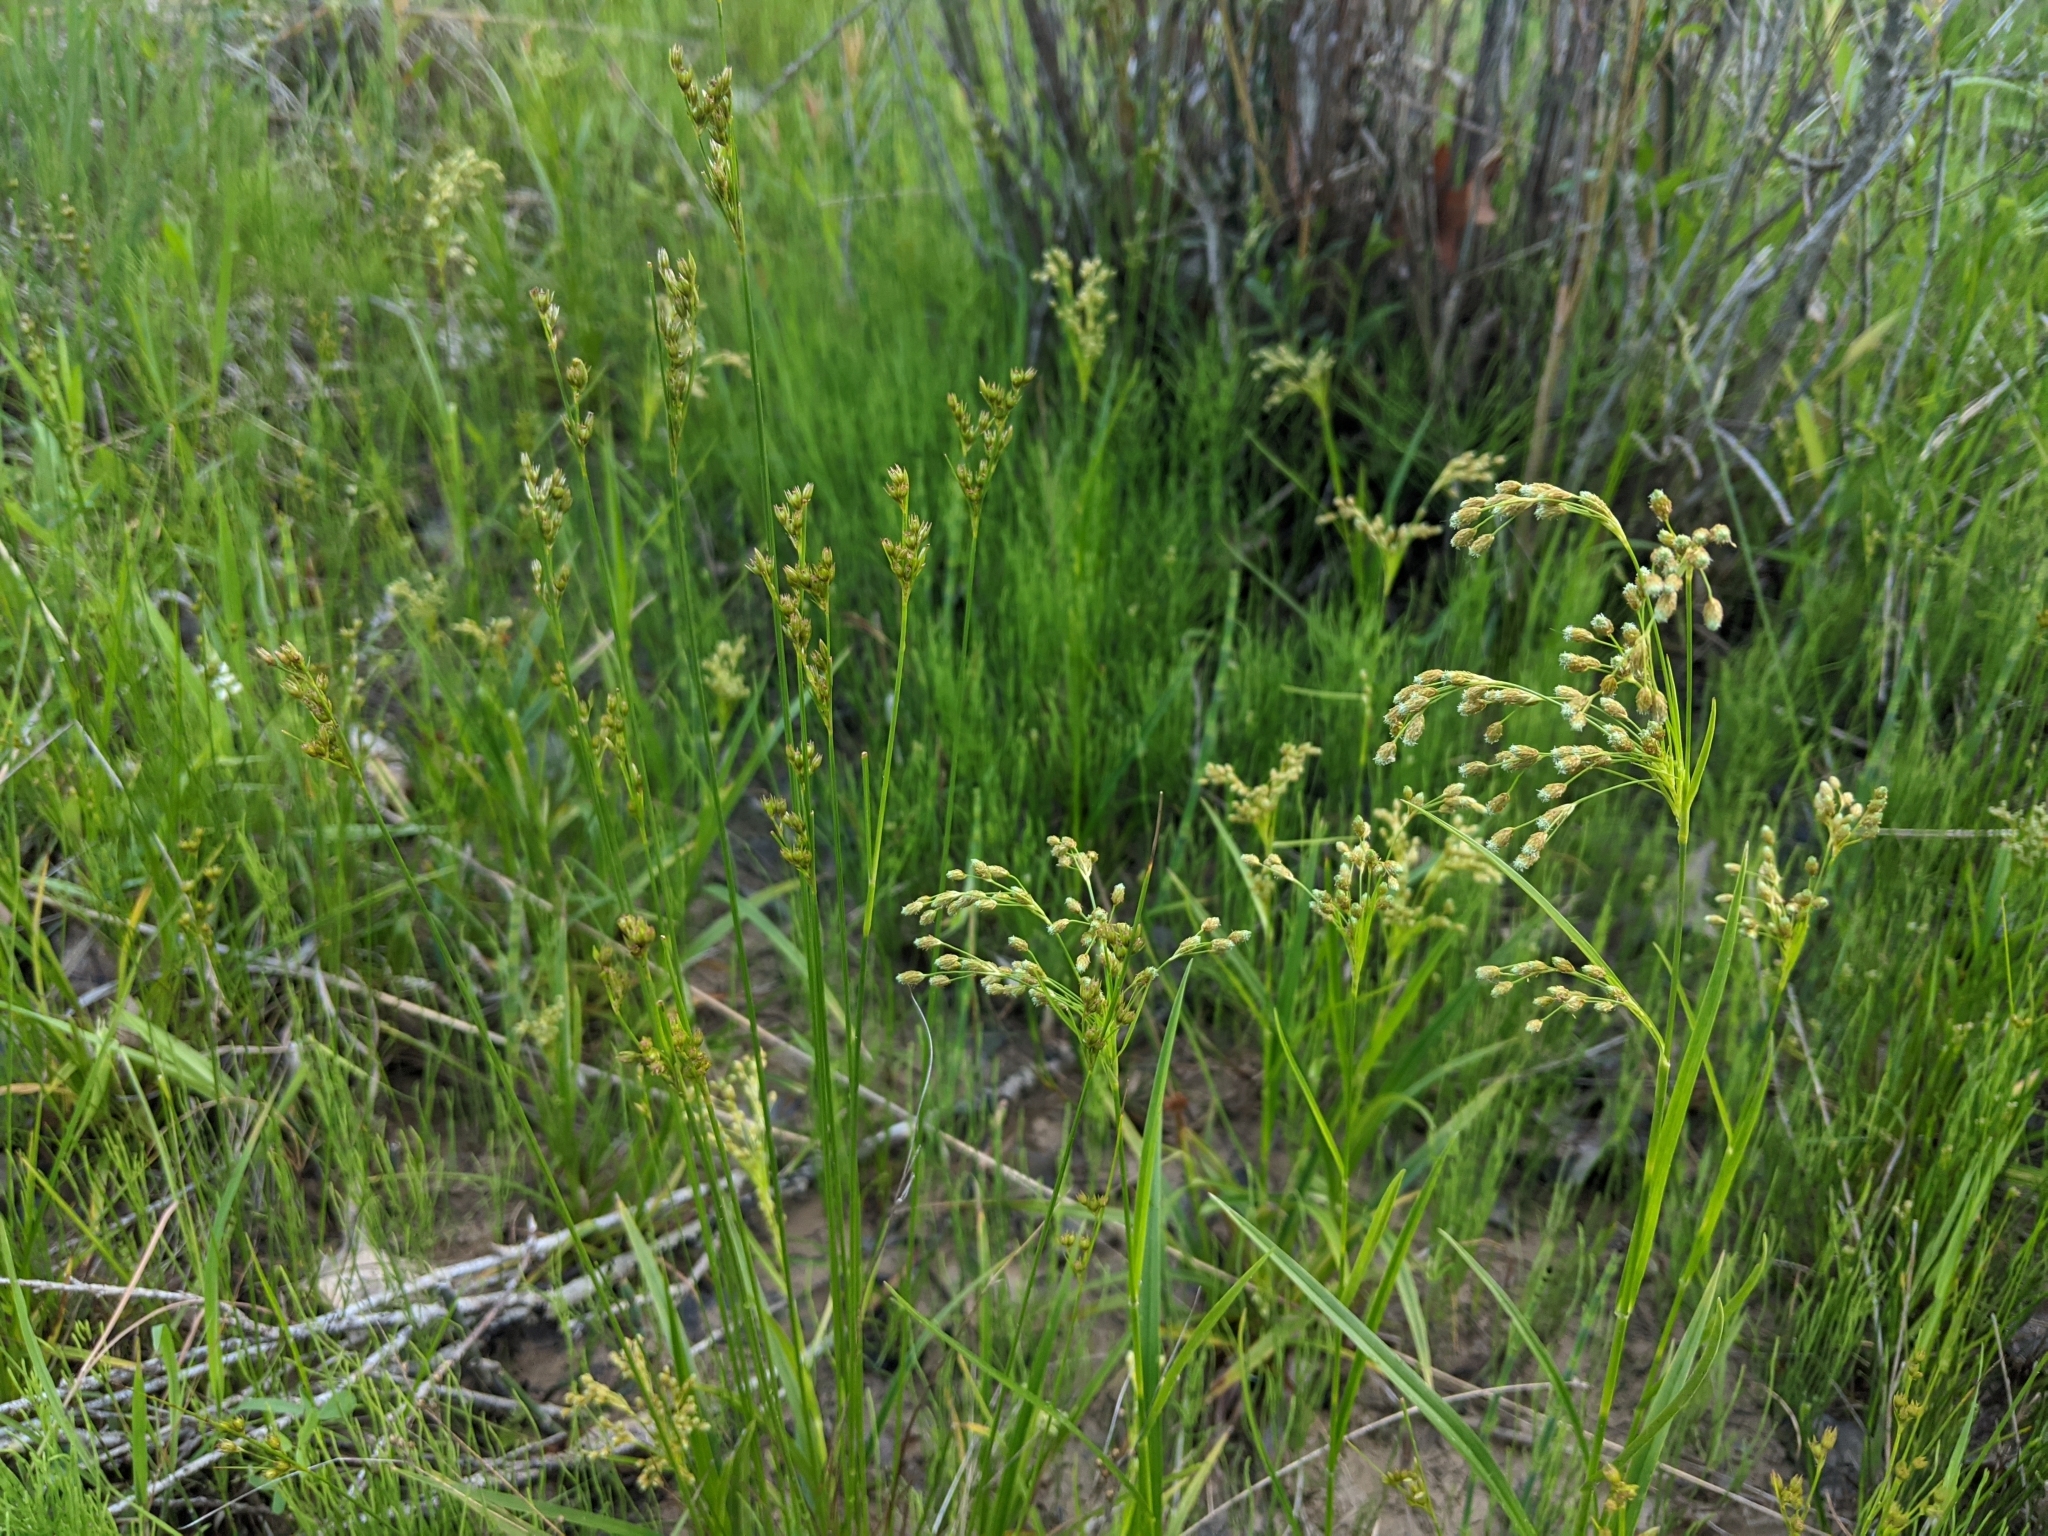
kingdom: Plantae
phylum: Tracheophyta
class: Liliopsida
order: Poales
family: Cyperaceae
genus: Scirpus
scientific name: Scirpus pendulus
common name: Nodding bulrush
